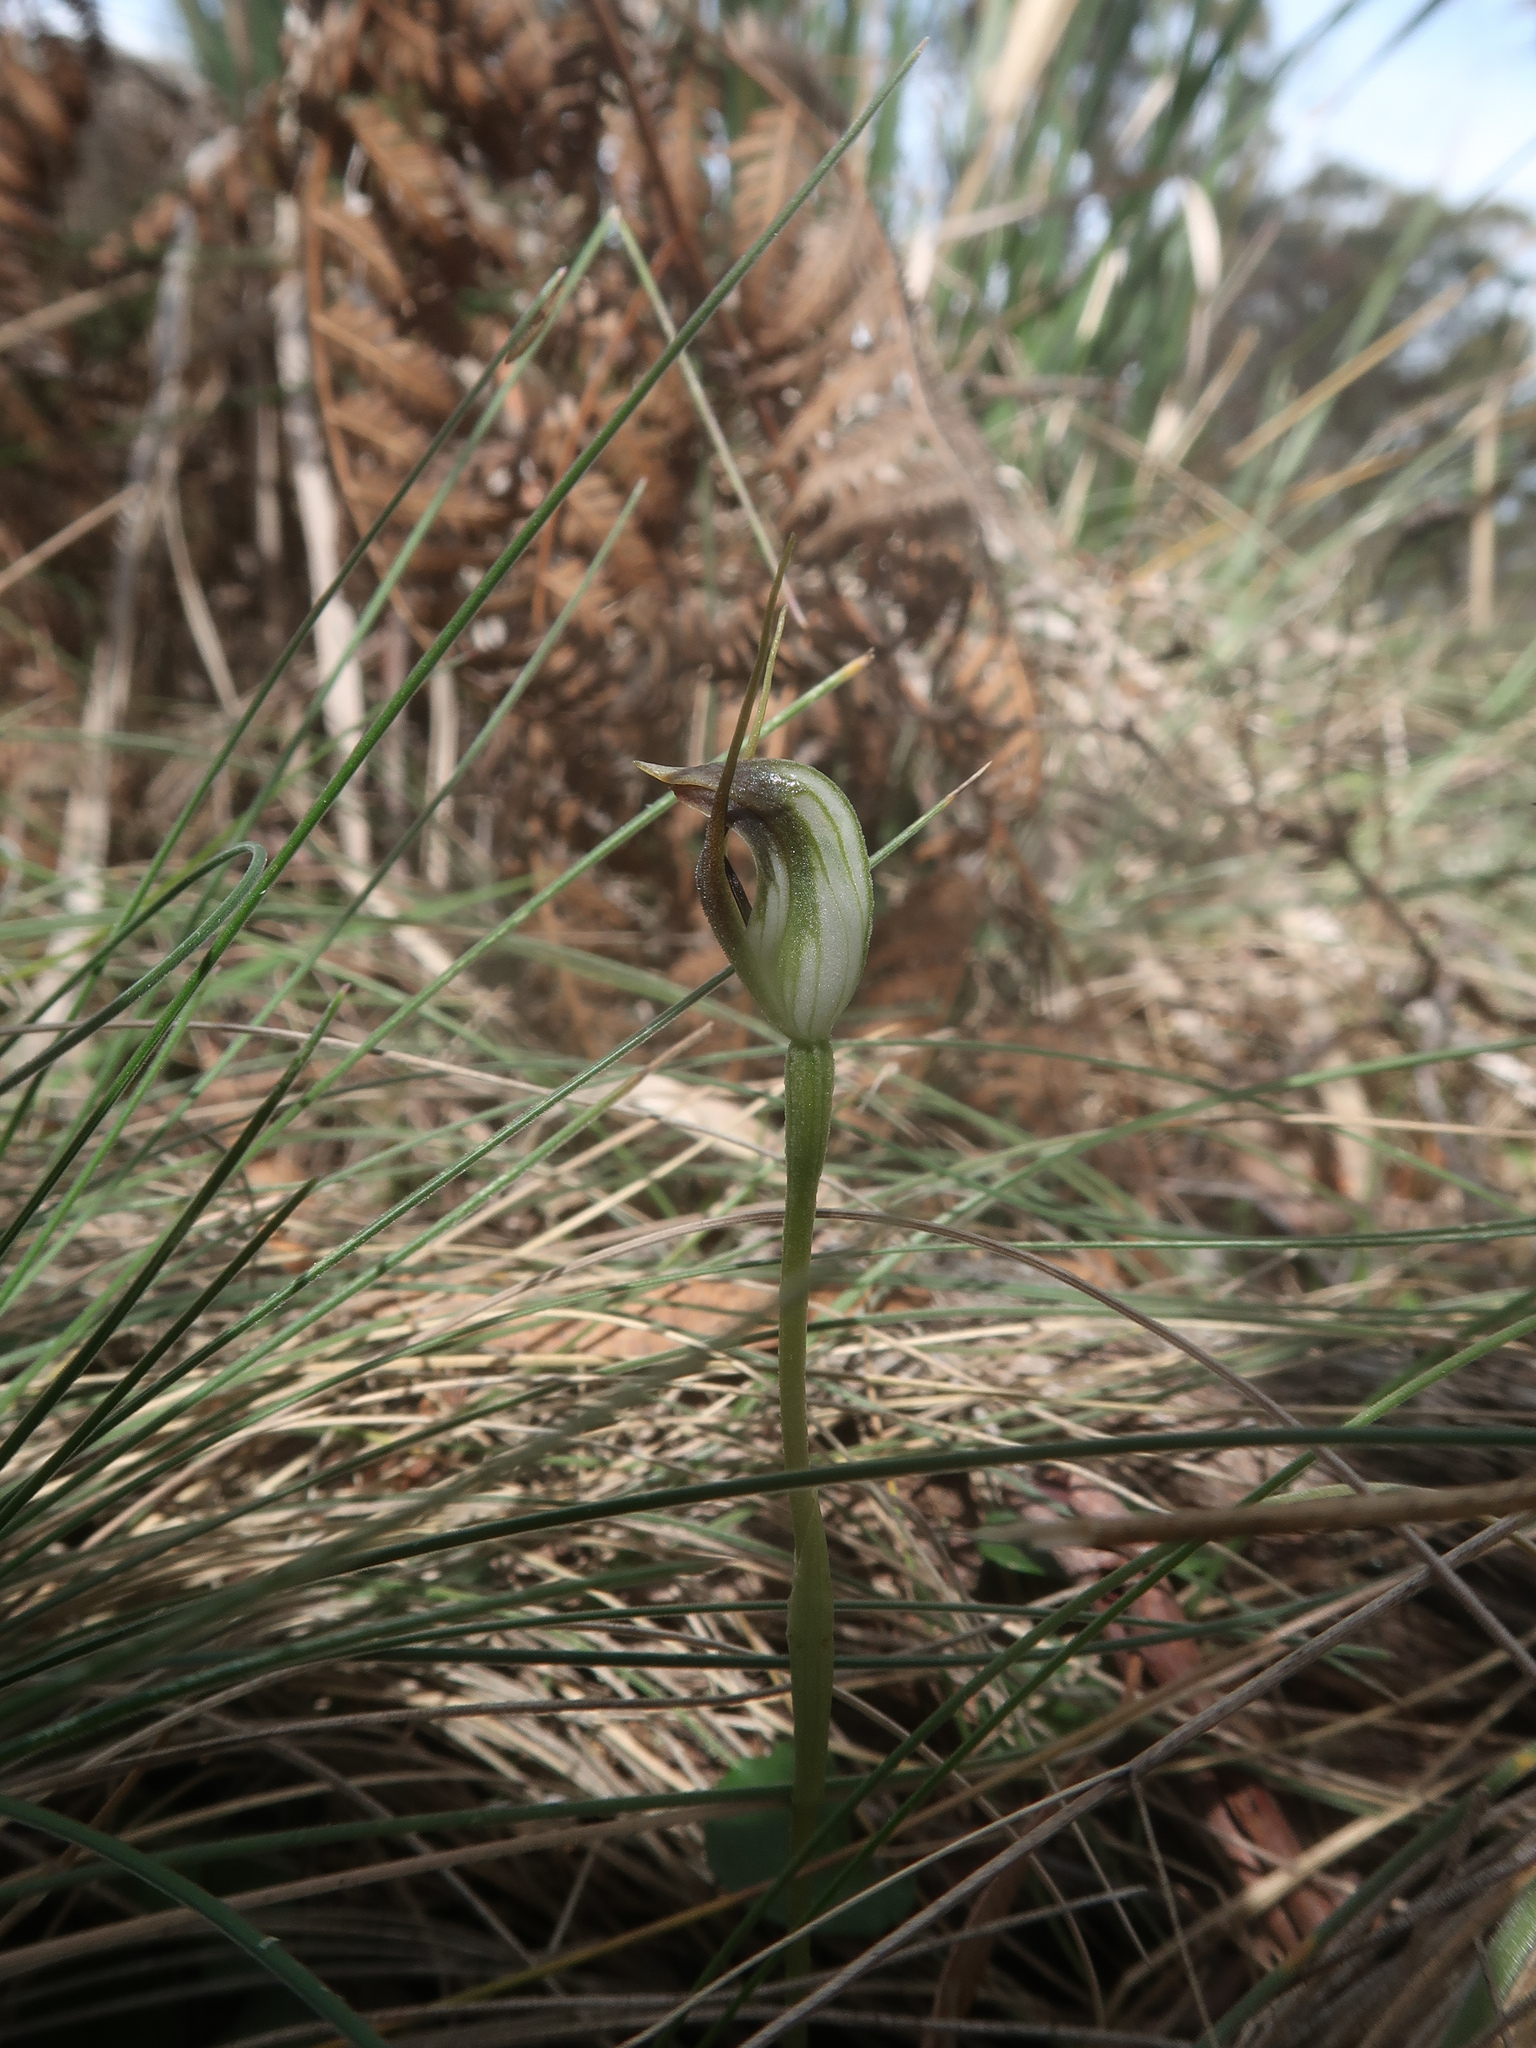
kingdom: Plantae
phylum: Tracheophyta
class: Liliopsida
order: Asparagales
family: Orchidaceae
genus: Pterostylis
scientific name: Pterostylis pedunculata
